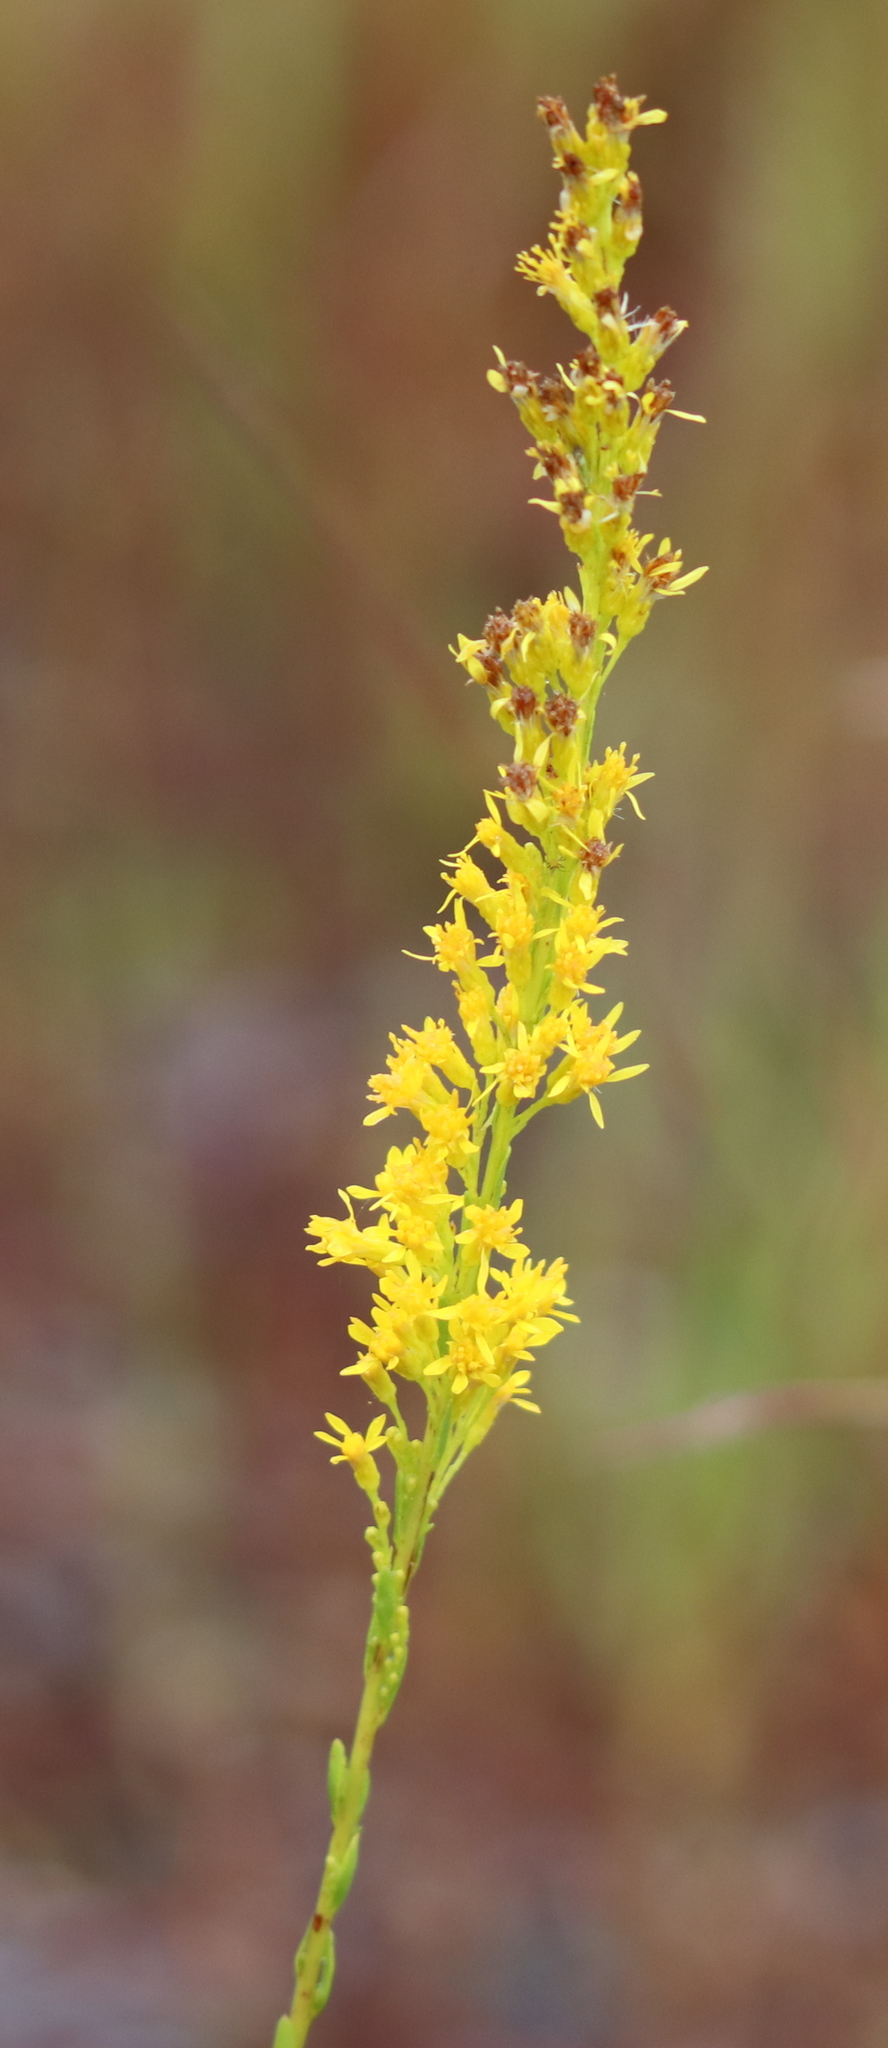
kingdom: Plantae
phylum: Tracheophyta
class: Magnoliopsida
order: Asterales
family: Asteraceae
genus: Solidago
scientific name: Solidago virgata
